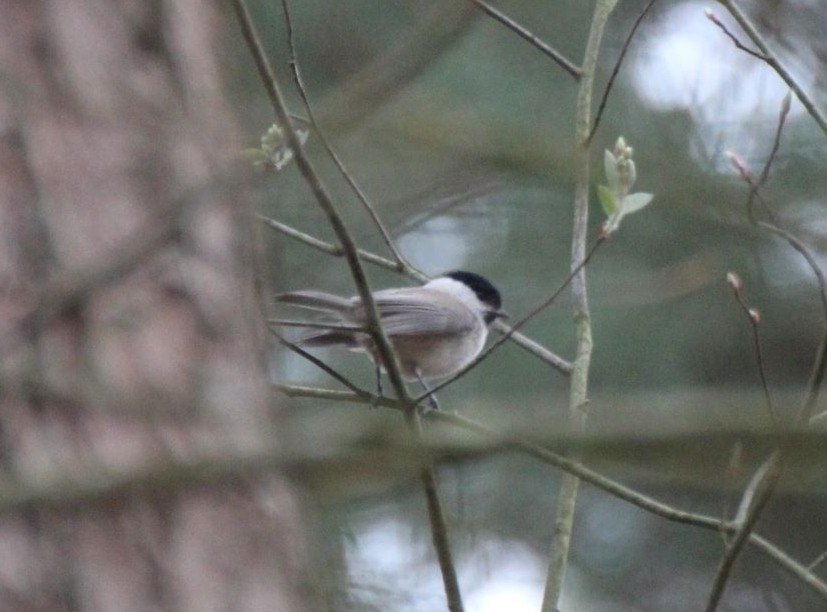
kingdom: Animalia
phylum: Chordata
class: Aves
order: Passeriformes
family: Paridae
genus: Poecile
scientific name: Poecile palustris
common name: Marsh tit
